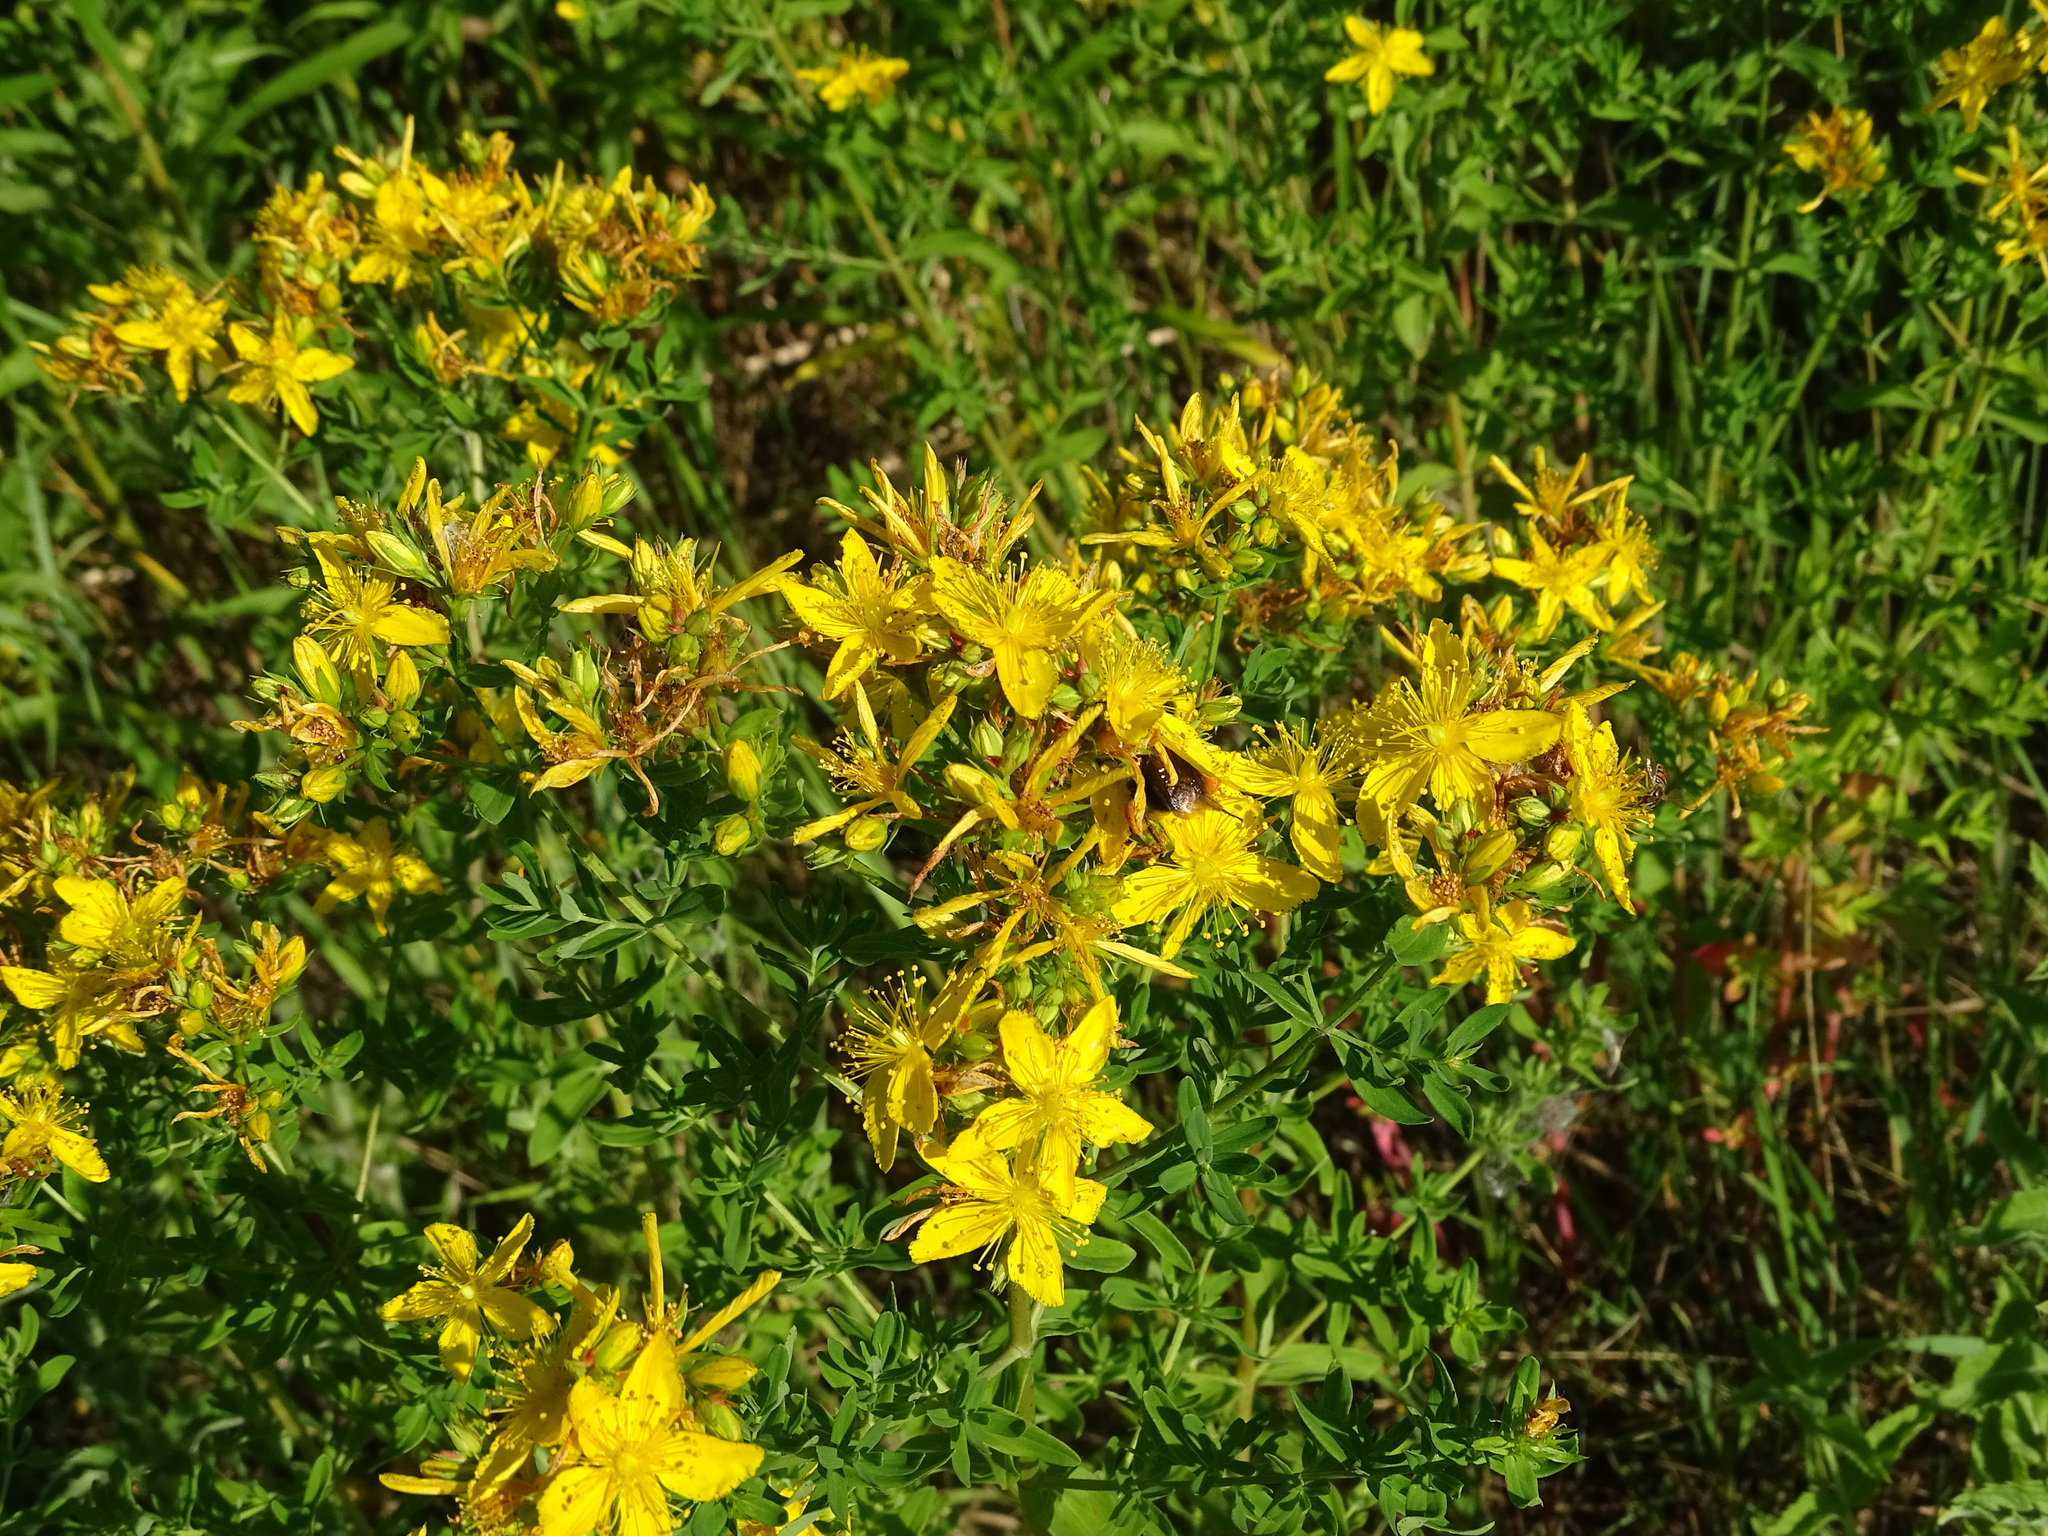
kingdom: Plantae
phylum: Tracheophyta
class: Magnoliopsida
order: Malpighiales
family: Hypericaceae
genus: Hypericum
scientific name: Hypericum perforatum
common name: Common st. johnswort
